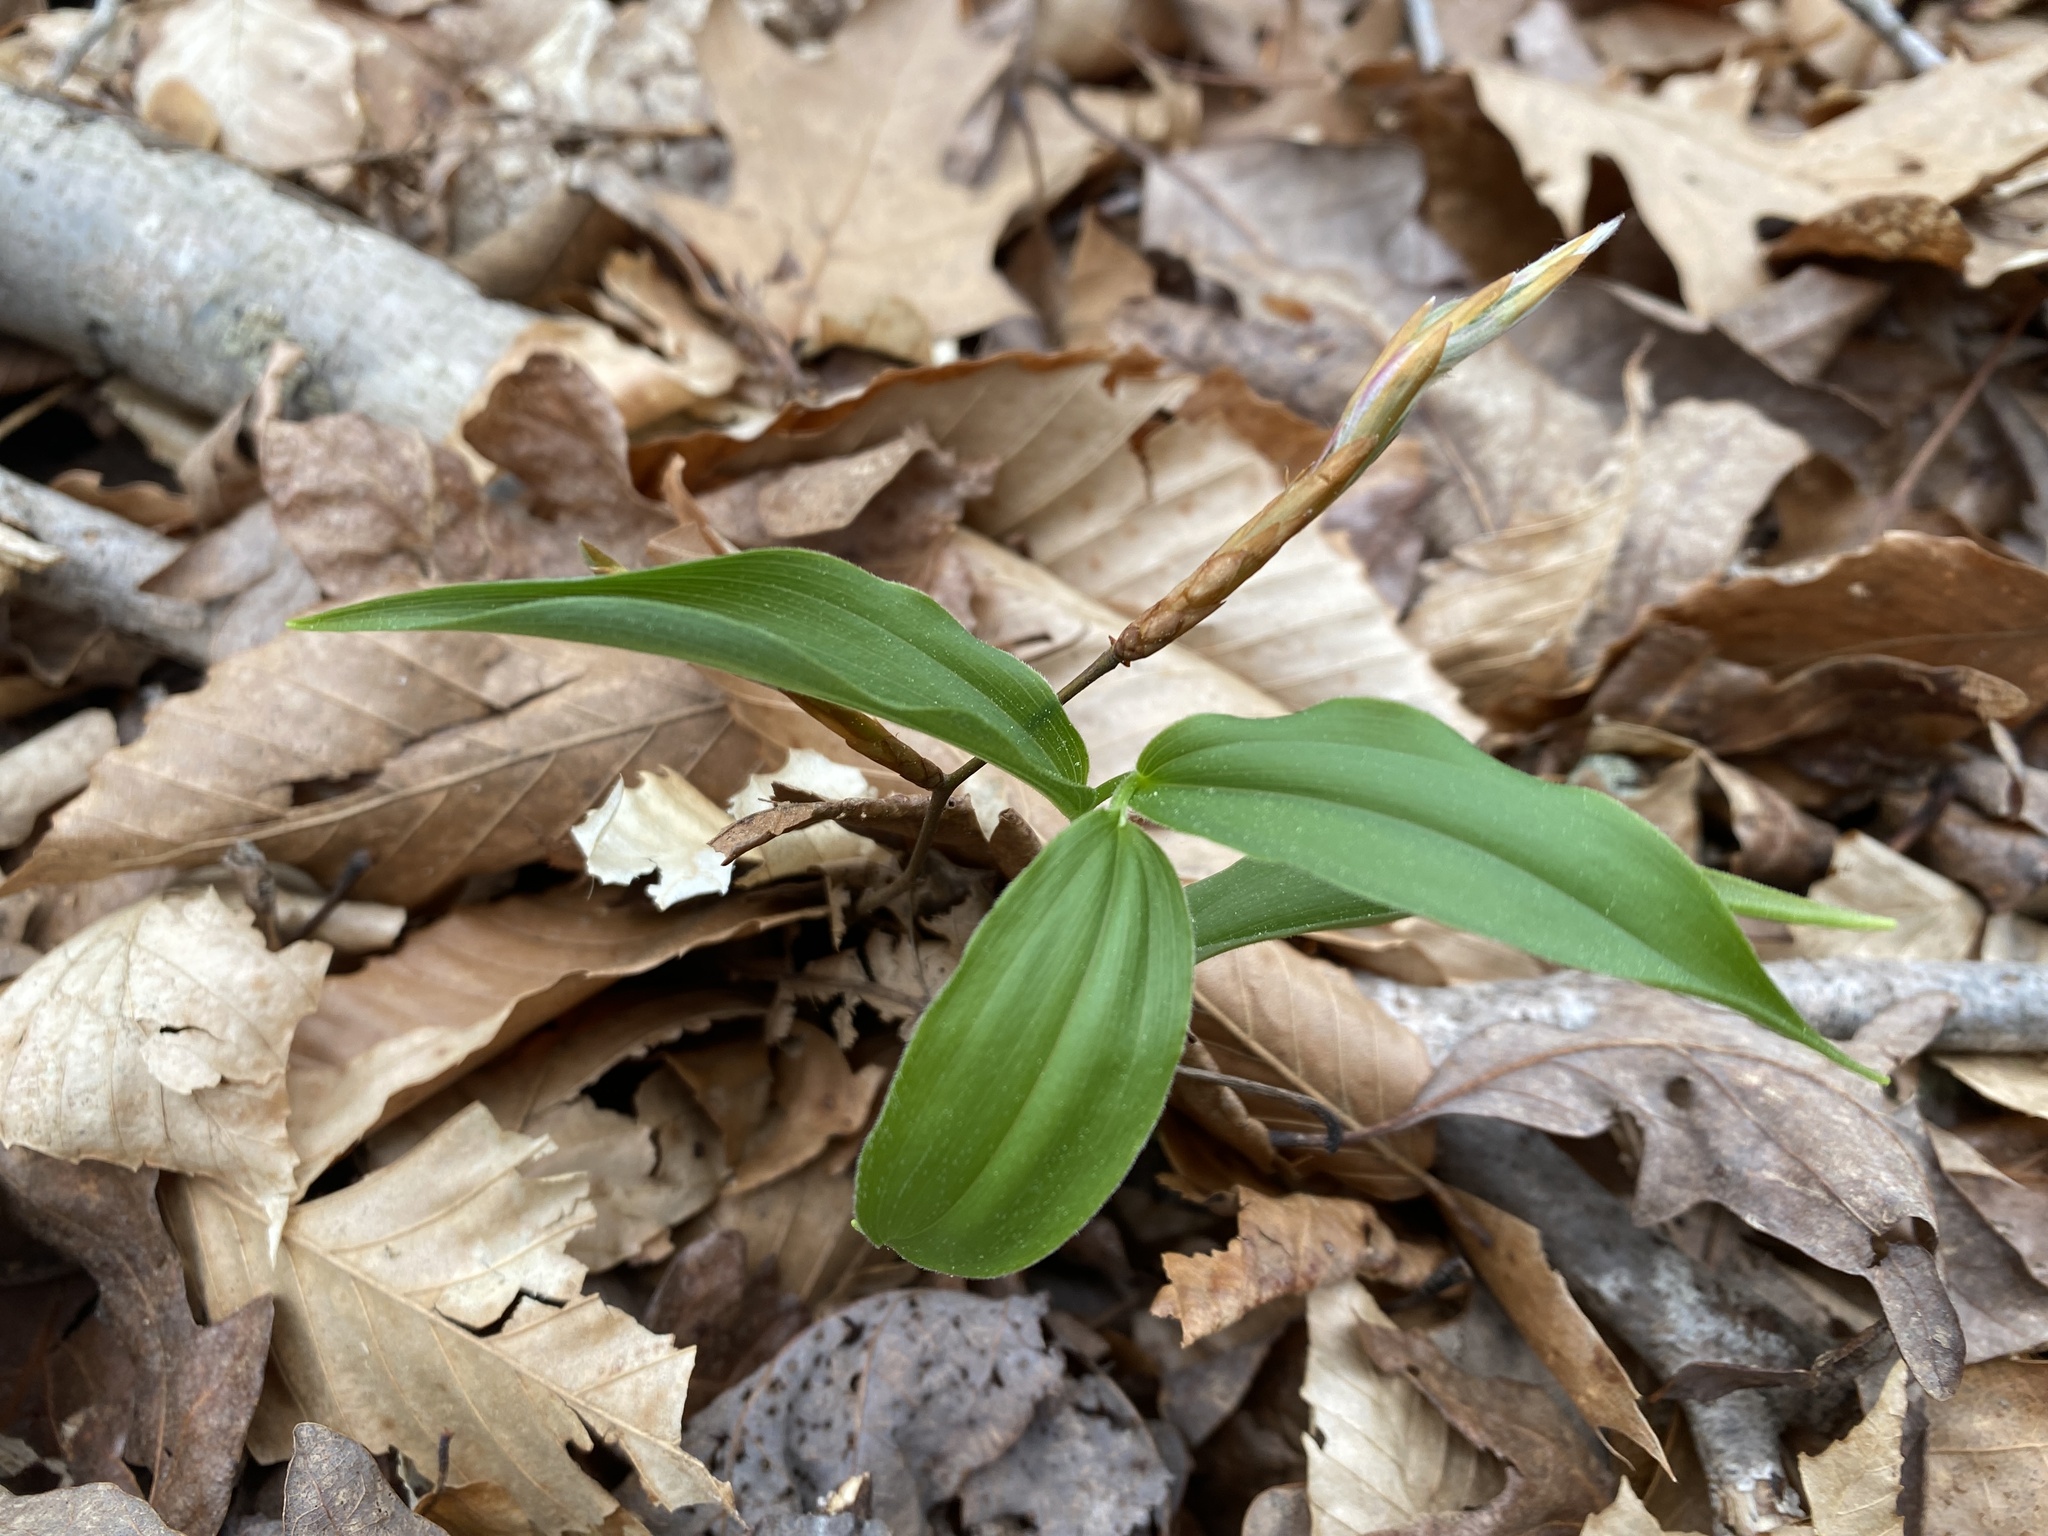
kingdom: Plantae
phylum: Tracheophyta
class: Liliopsida
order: Asparagales
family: Asparagaceae
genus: Maianthemum
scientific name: Maianthemum racemosum
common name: False spikenard
